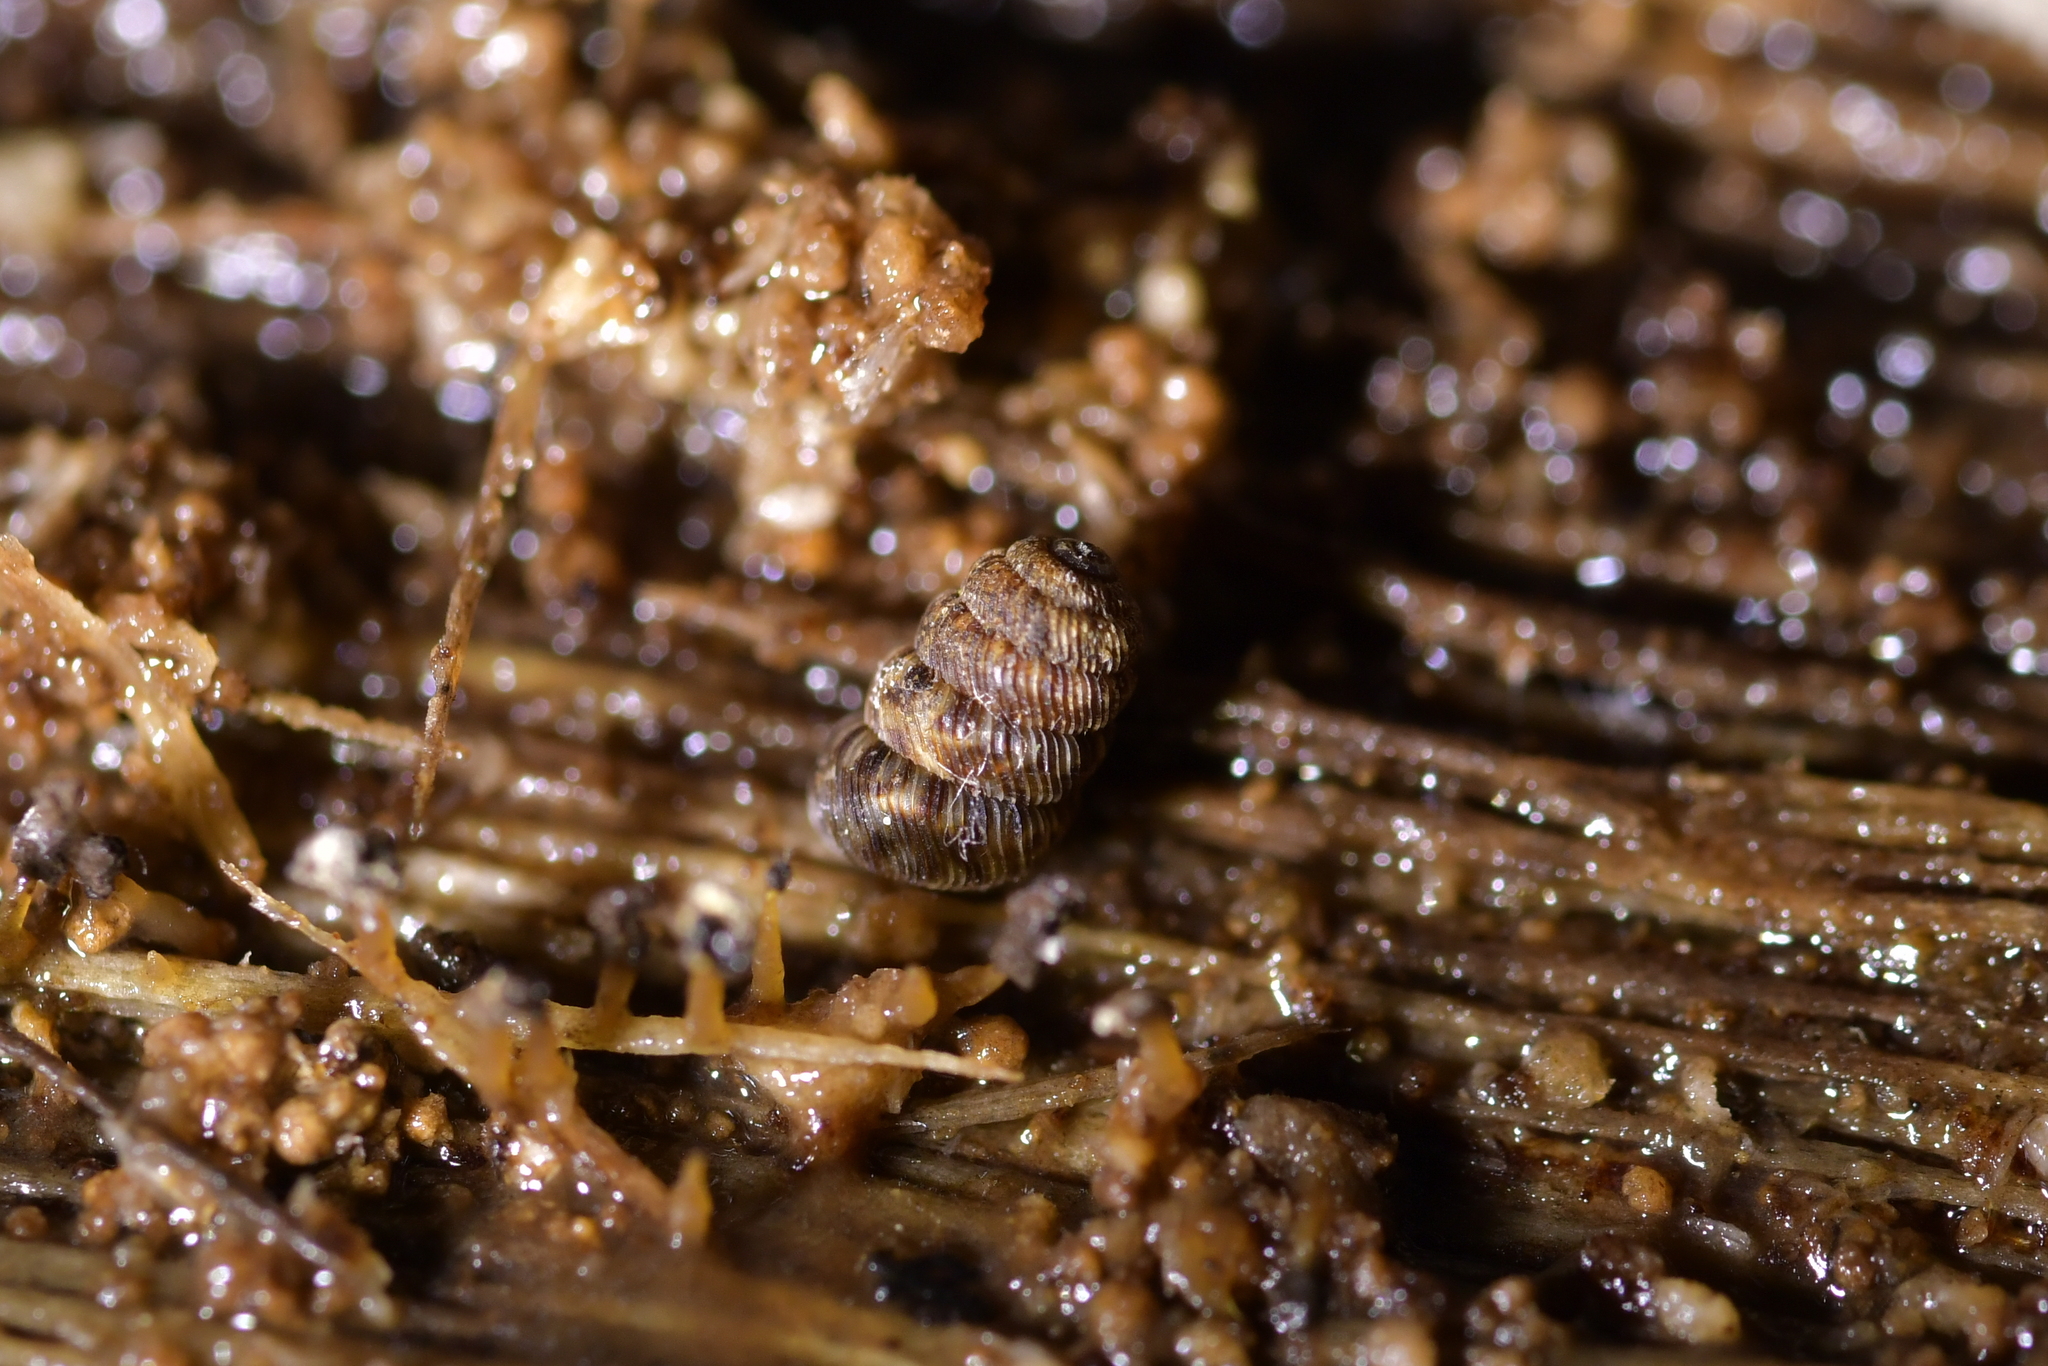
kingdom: Animalia
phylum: Mollusca
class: Gastropoda
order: Stylommatophora
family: Charopidae
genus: Phenacharopa
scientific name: Phenacharopa novoseelandica
